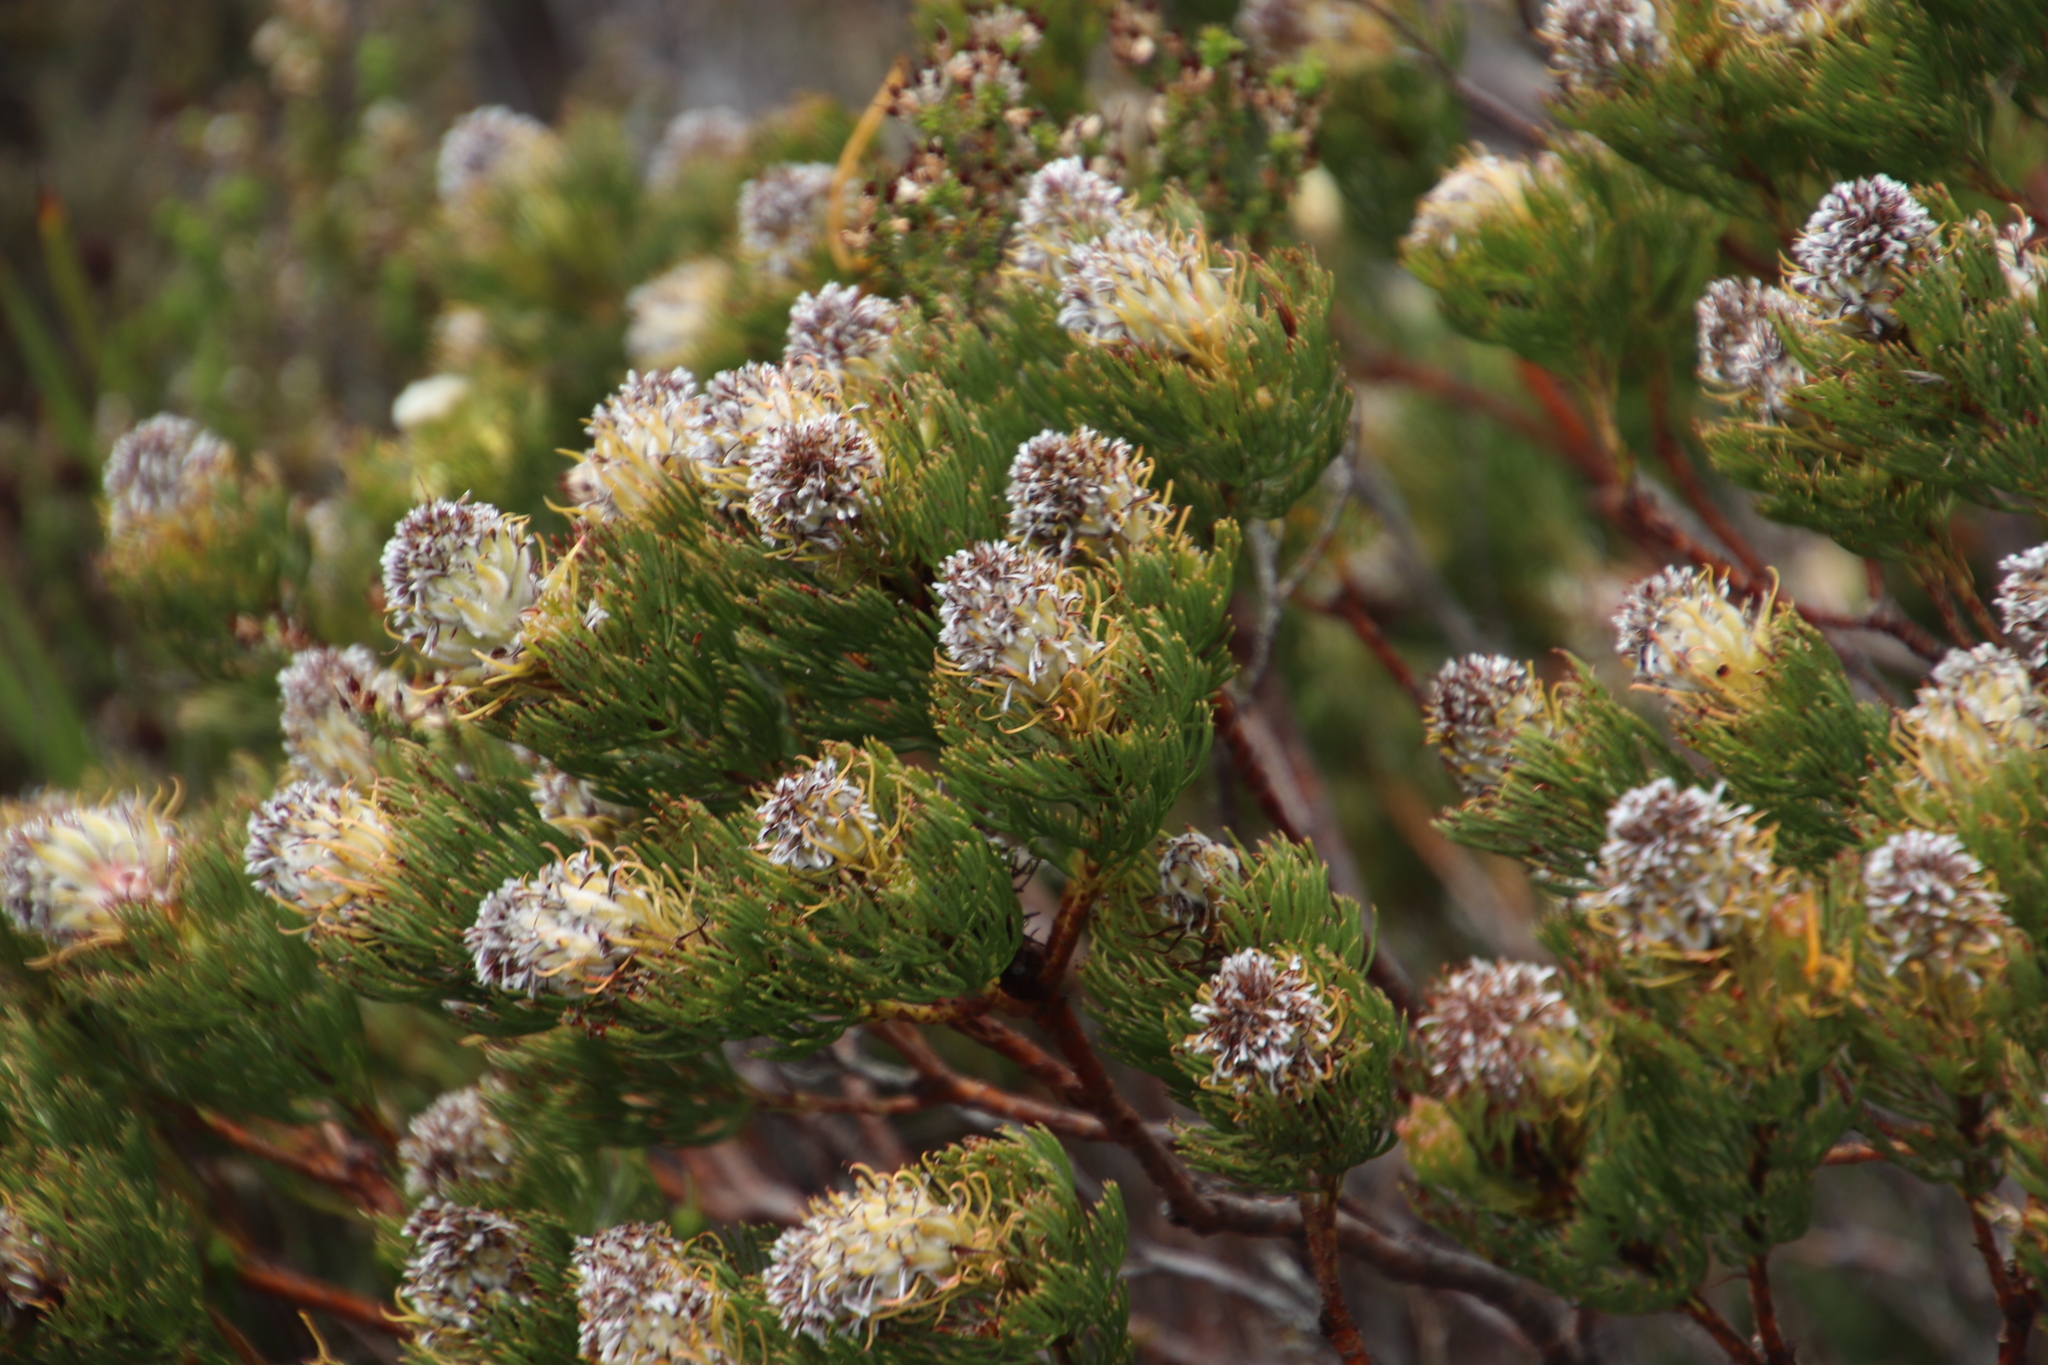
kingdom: Plantae
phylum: Tracheophyta
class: Magnoliopsida
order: Proteales
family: Proteaceae
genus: Serruria
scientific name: Serruria villosa
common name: Golden spiderhead
